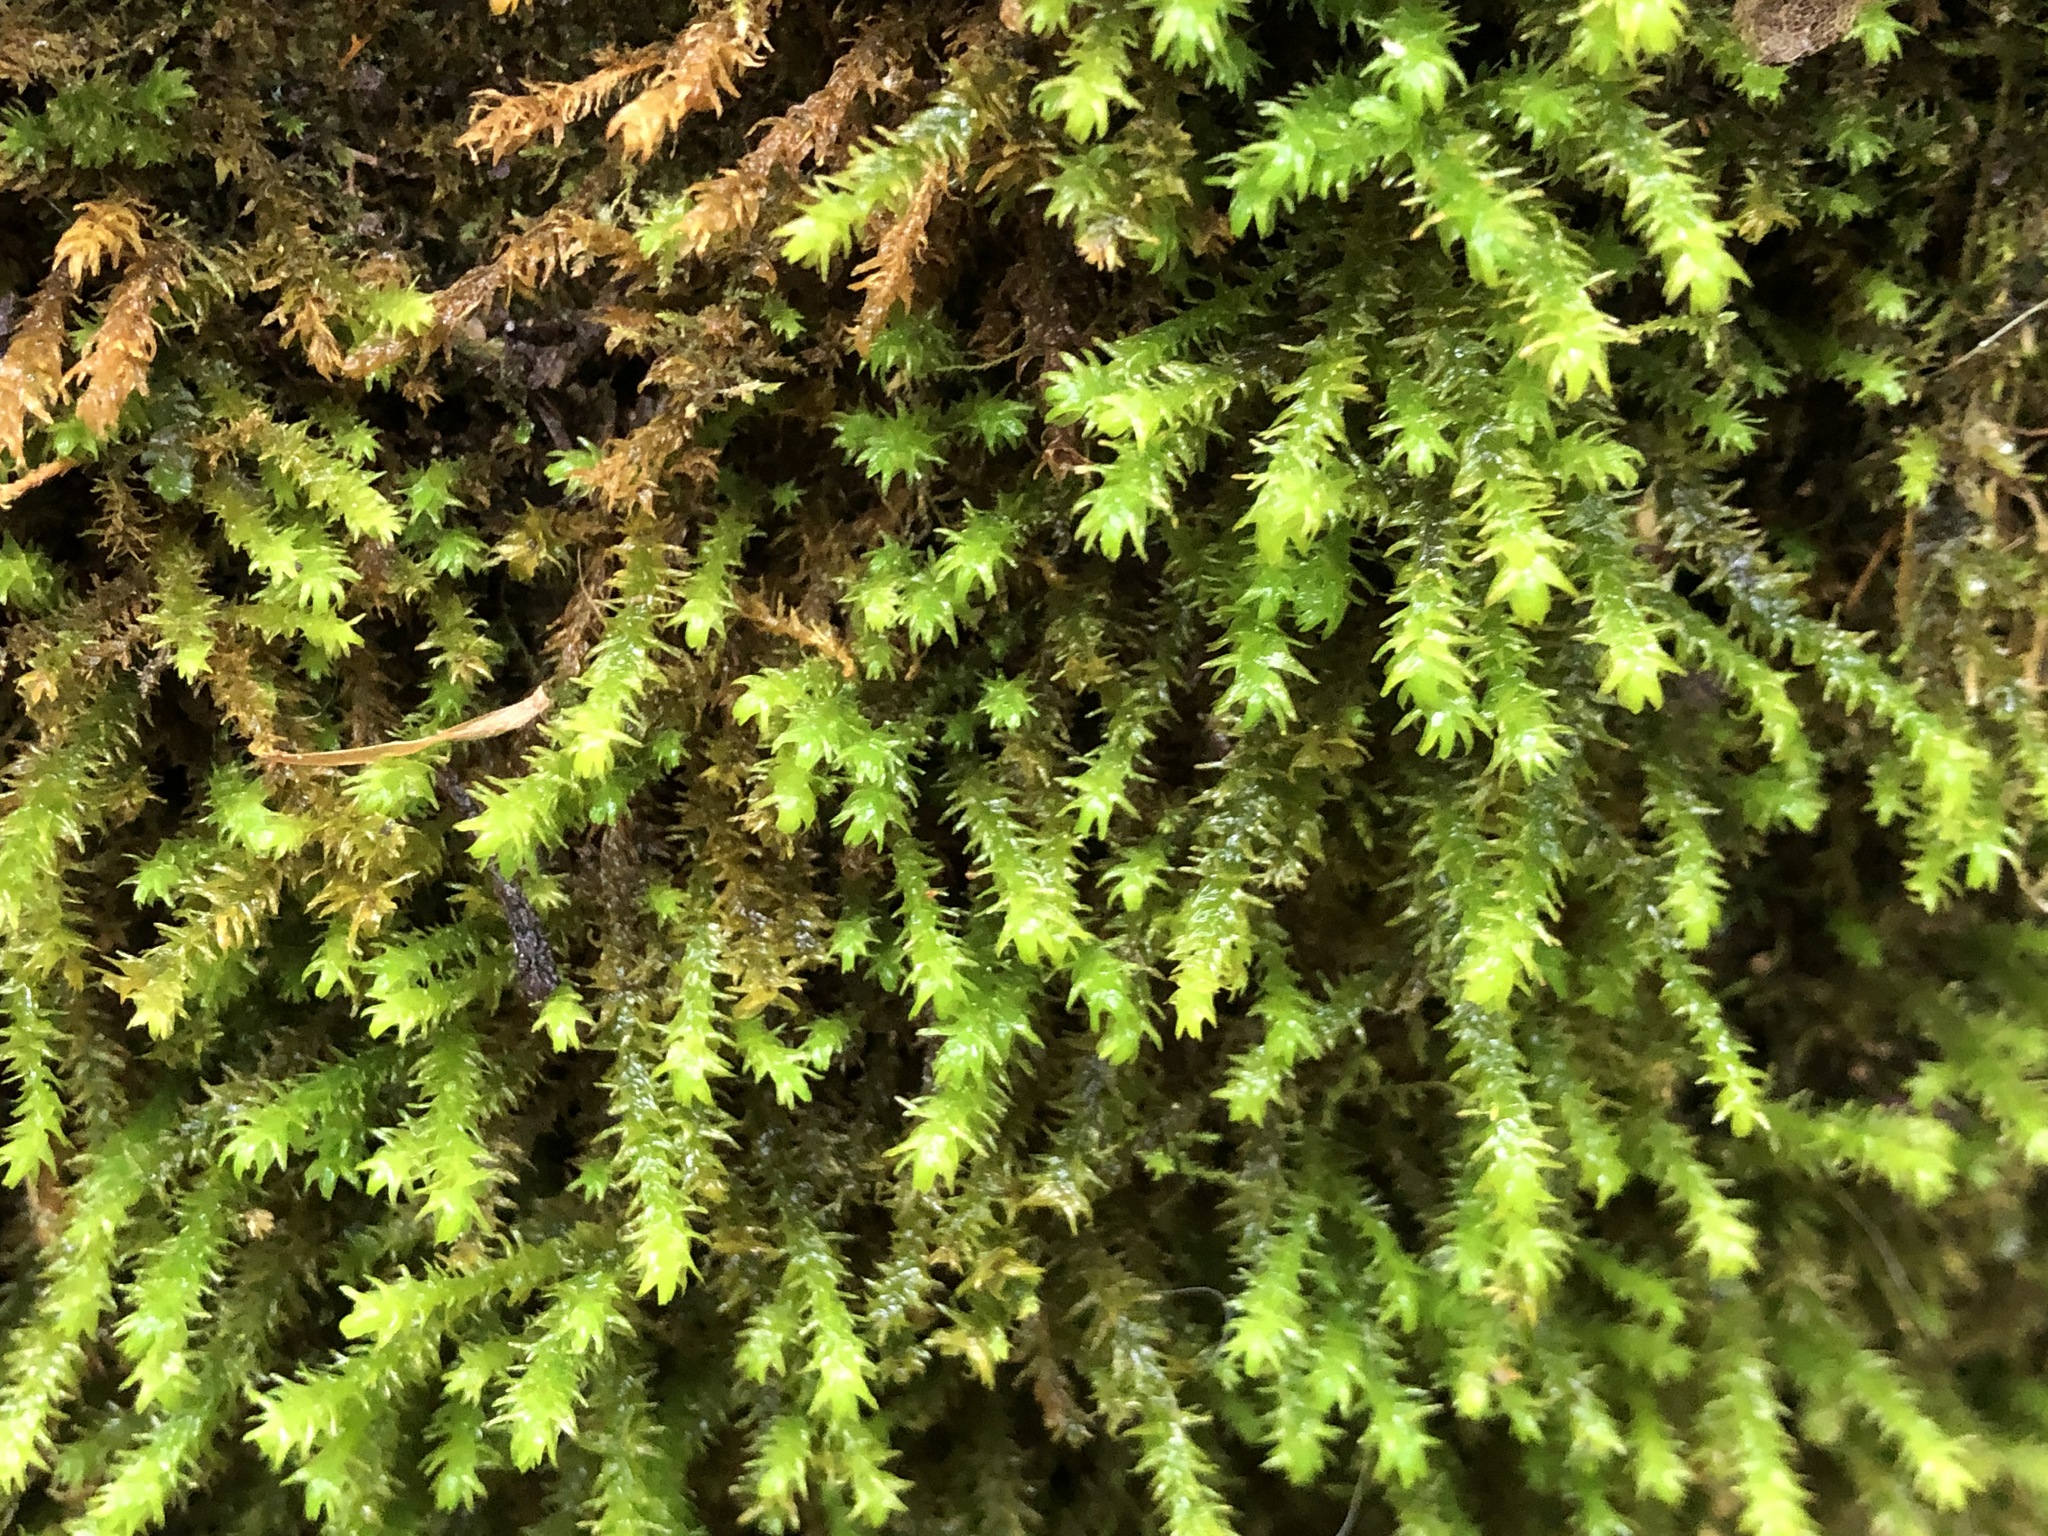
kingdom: Plantae
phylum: Bryophyta
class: Bryopsida
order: Hypnales
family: Anomodontaceae
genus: Anomodon
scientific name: Anomodon viticulosus
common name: Tall anomodon
